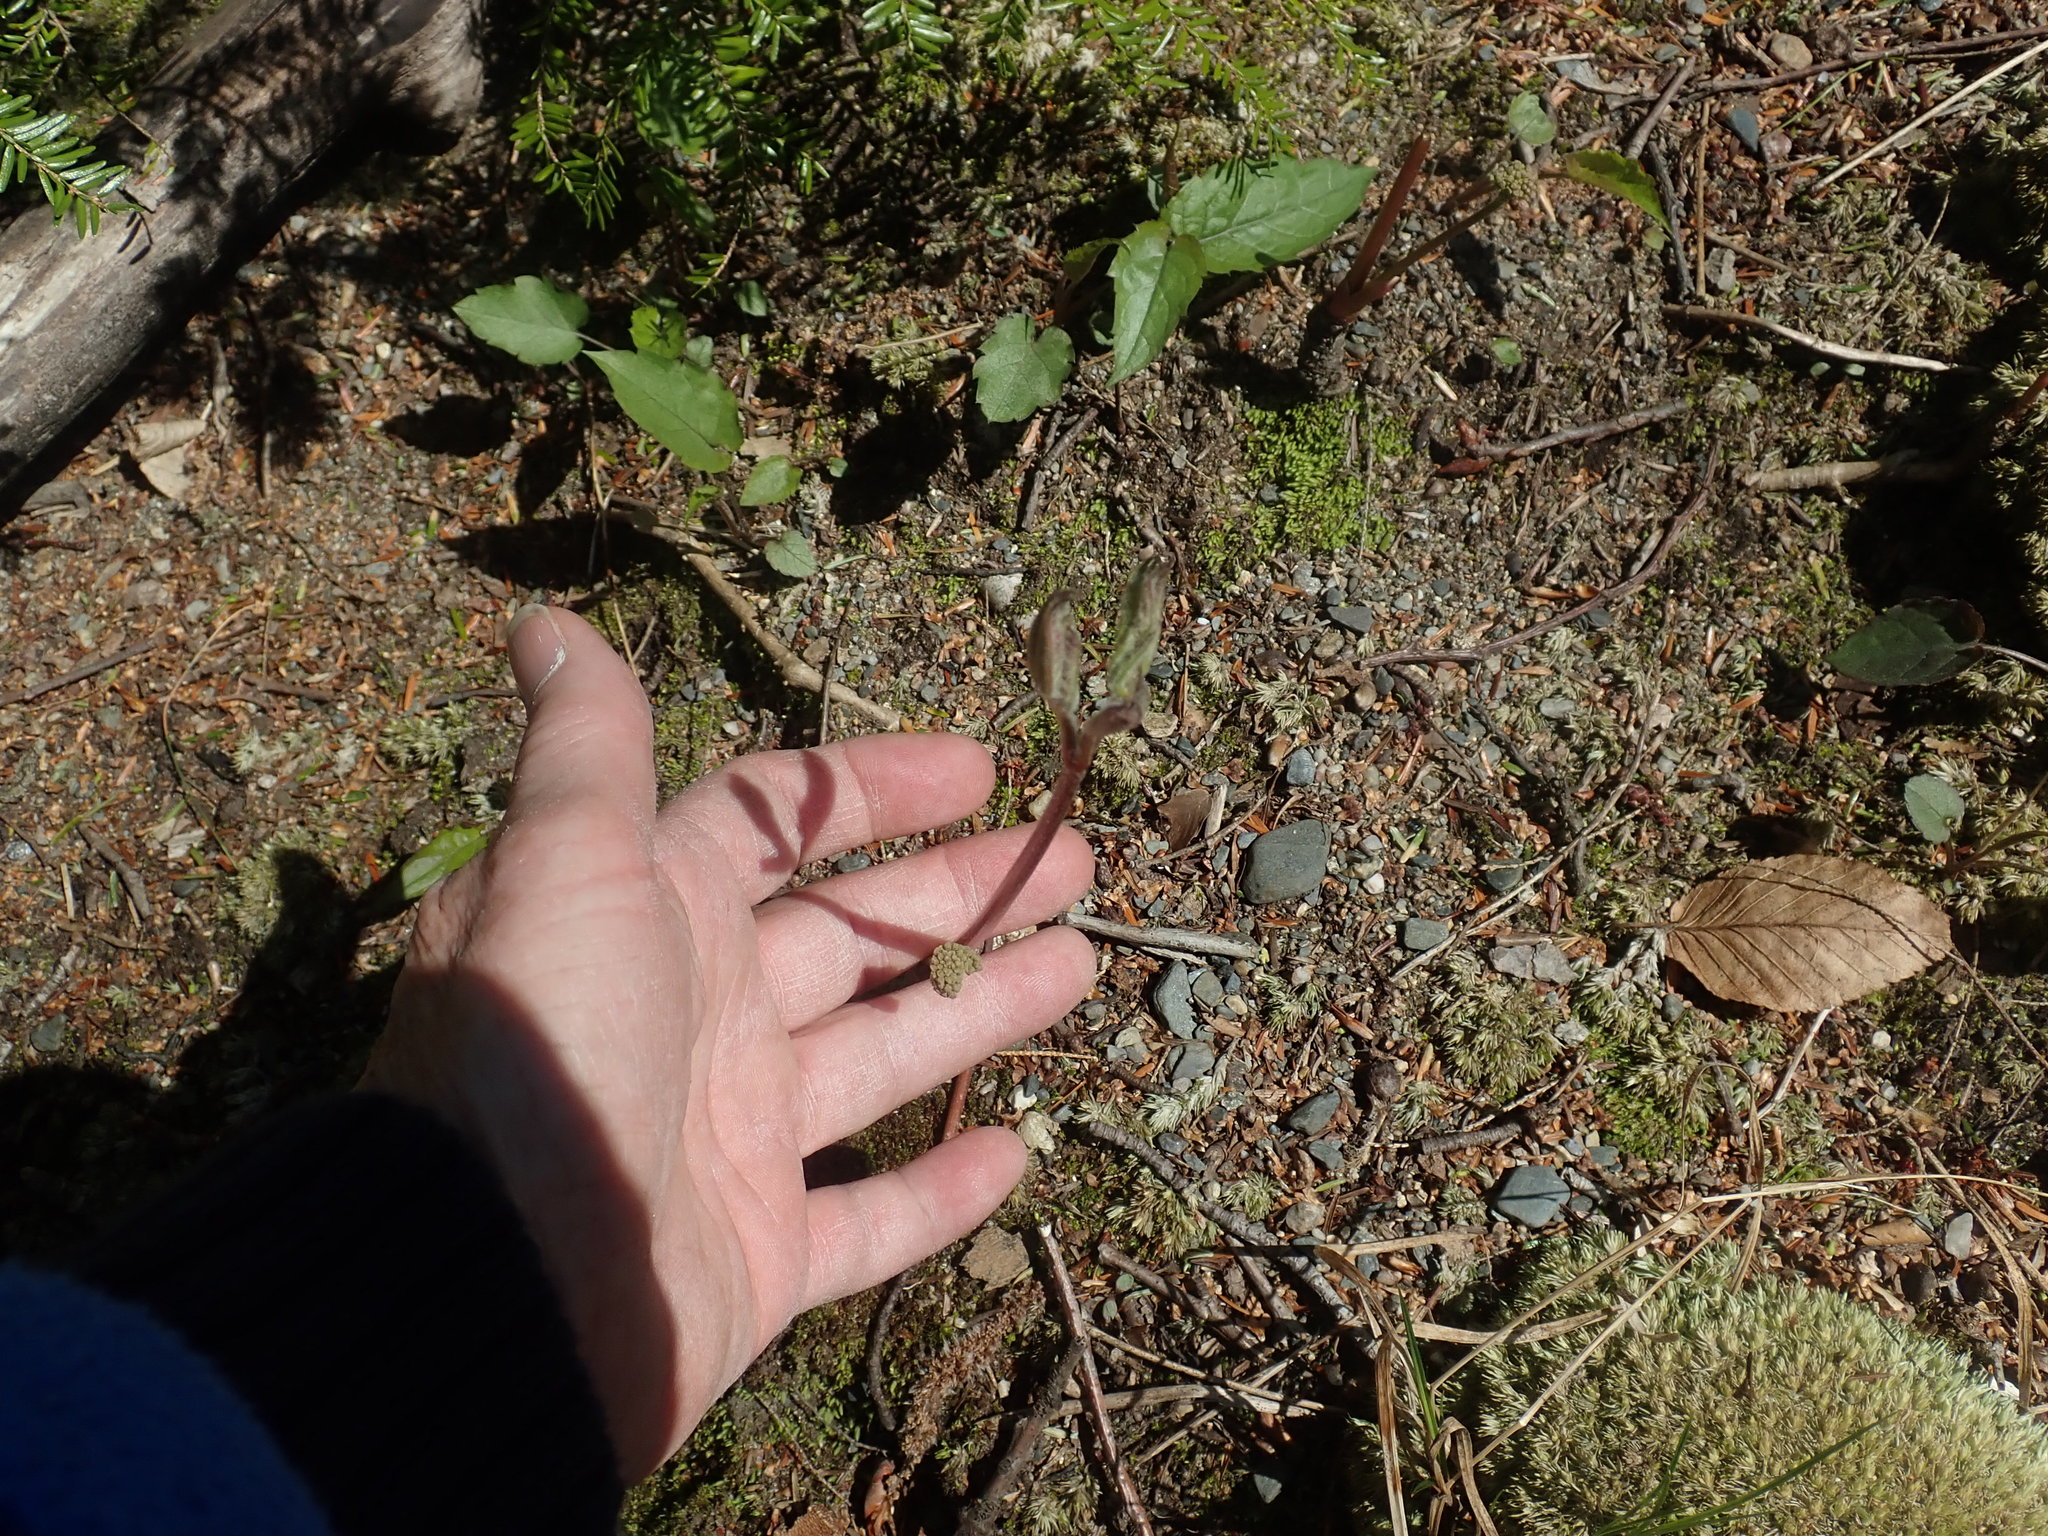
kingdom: Plantae
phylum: Tracheophyta
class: Magnoliopsida
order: Apiales
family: Araliaceae
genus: Aralia
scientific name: Aralia nudicaulis
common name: Wild sarsaparilla
